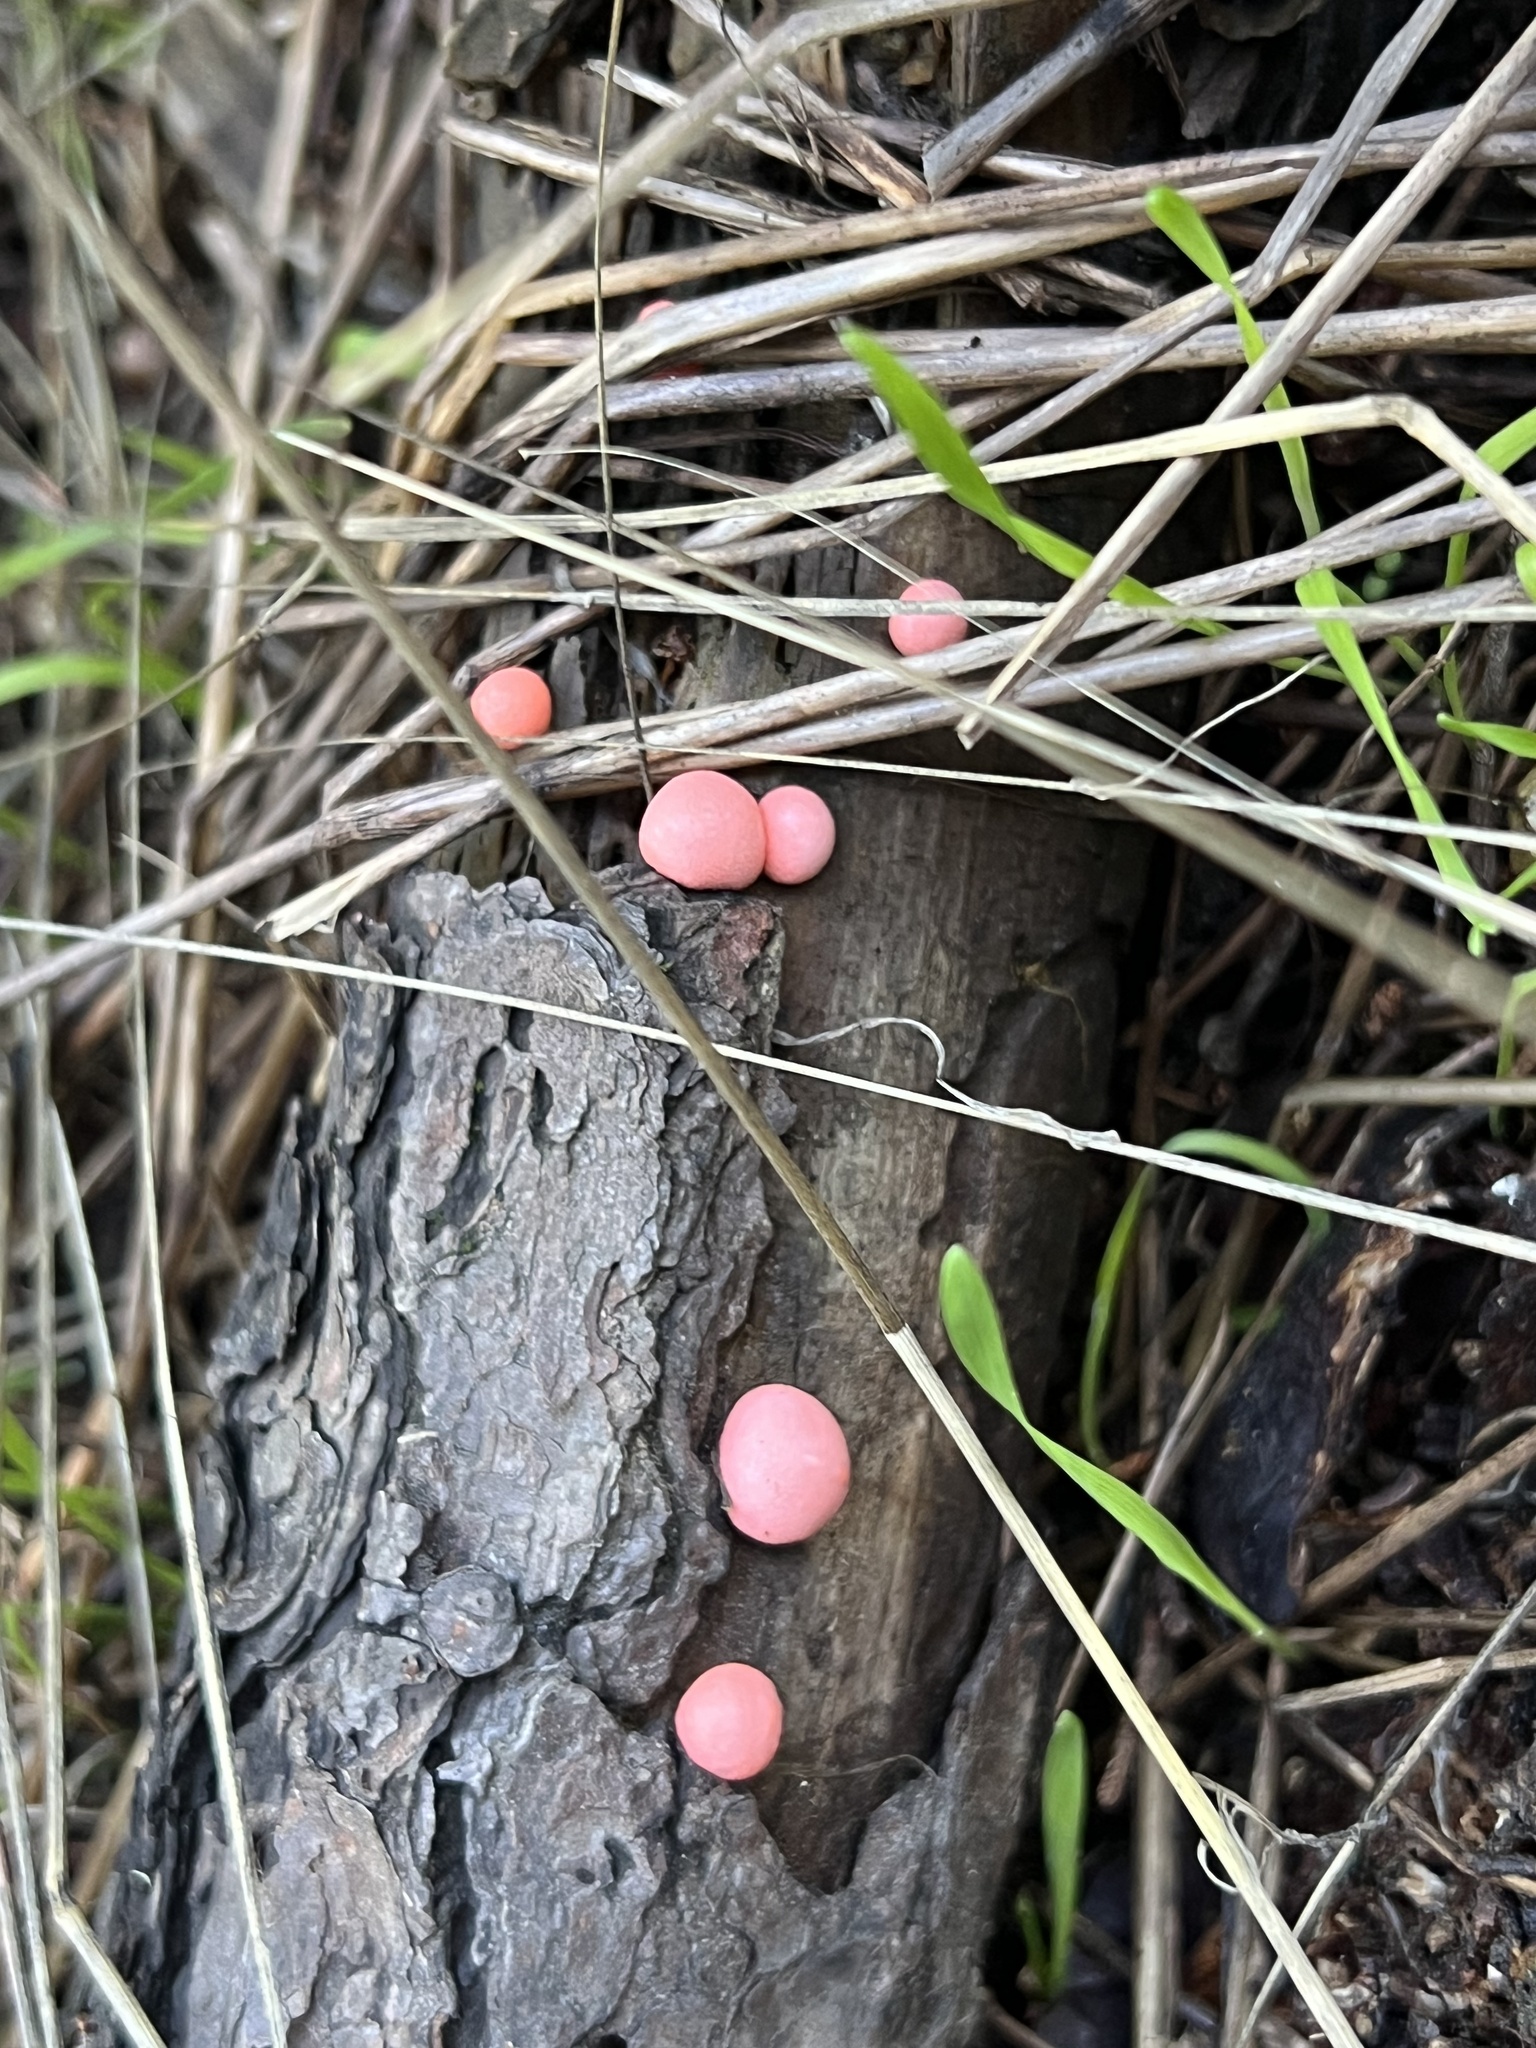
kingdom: Protozoa
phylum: Mycetozoa
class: Myxomycetes
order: Cribrariales
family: Tubiferaceae
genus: Lycogala
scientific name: Lycogala epidendrum
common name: Wolf's milk
